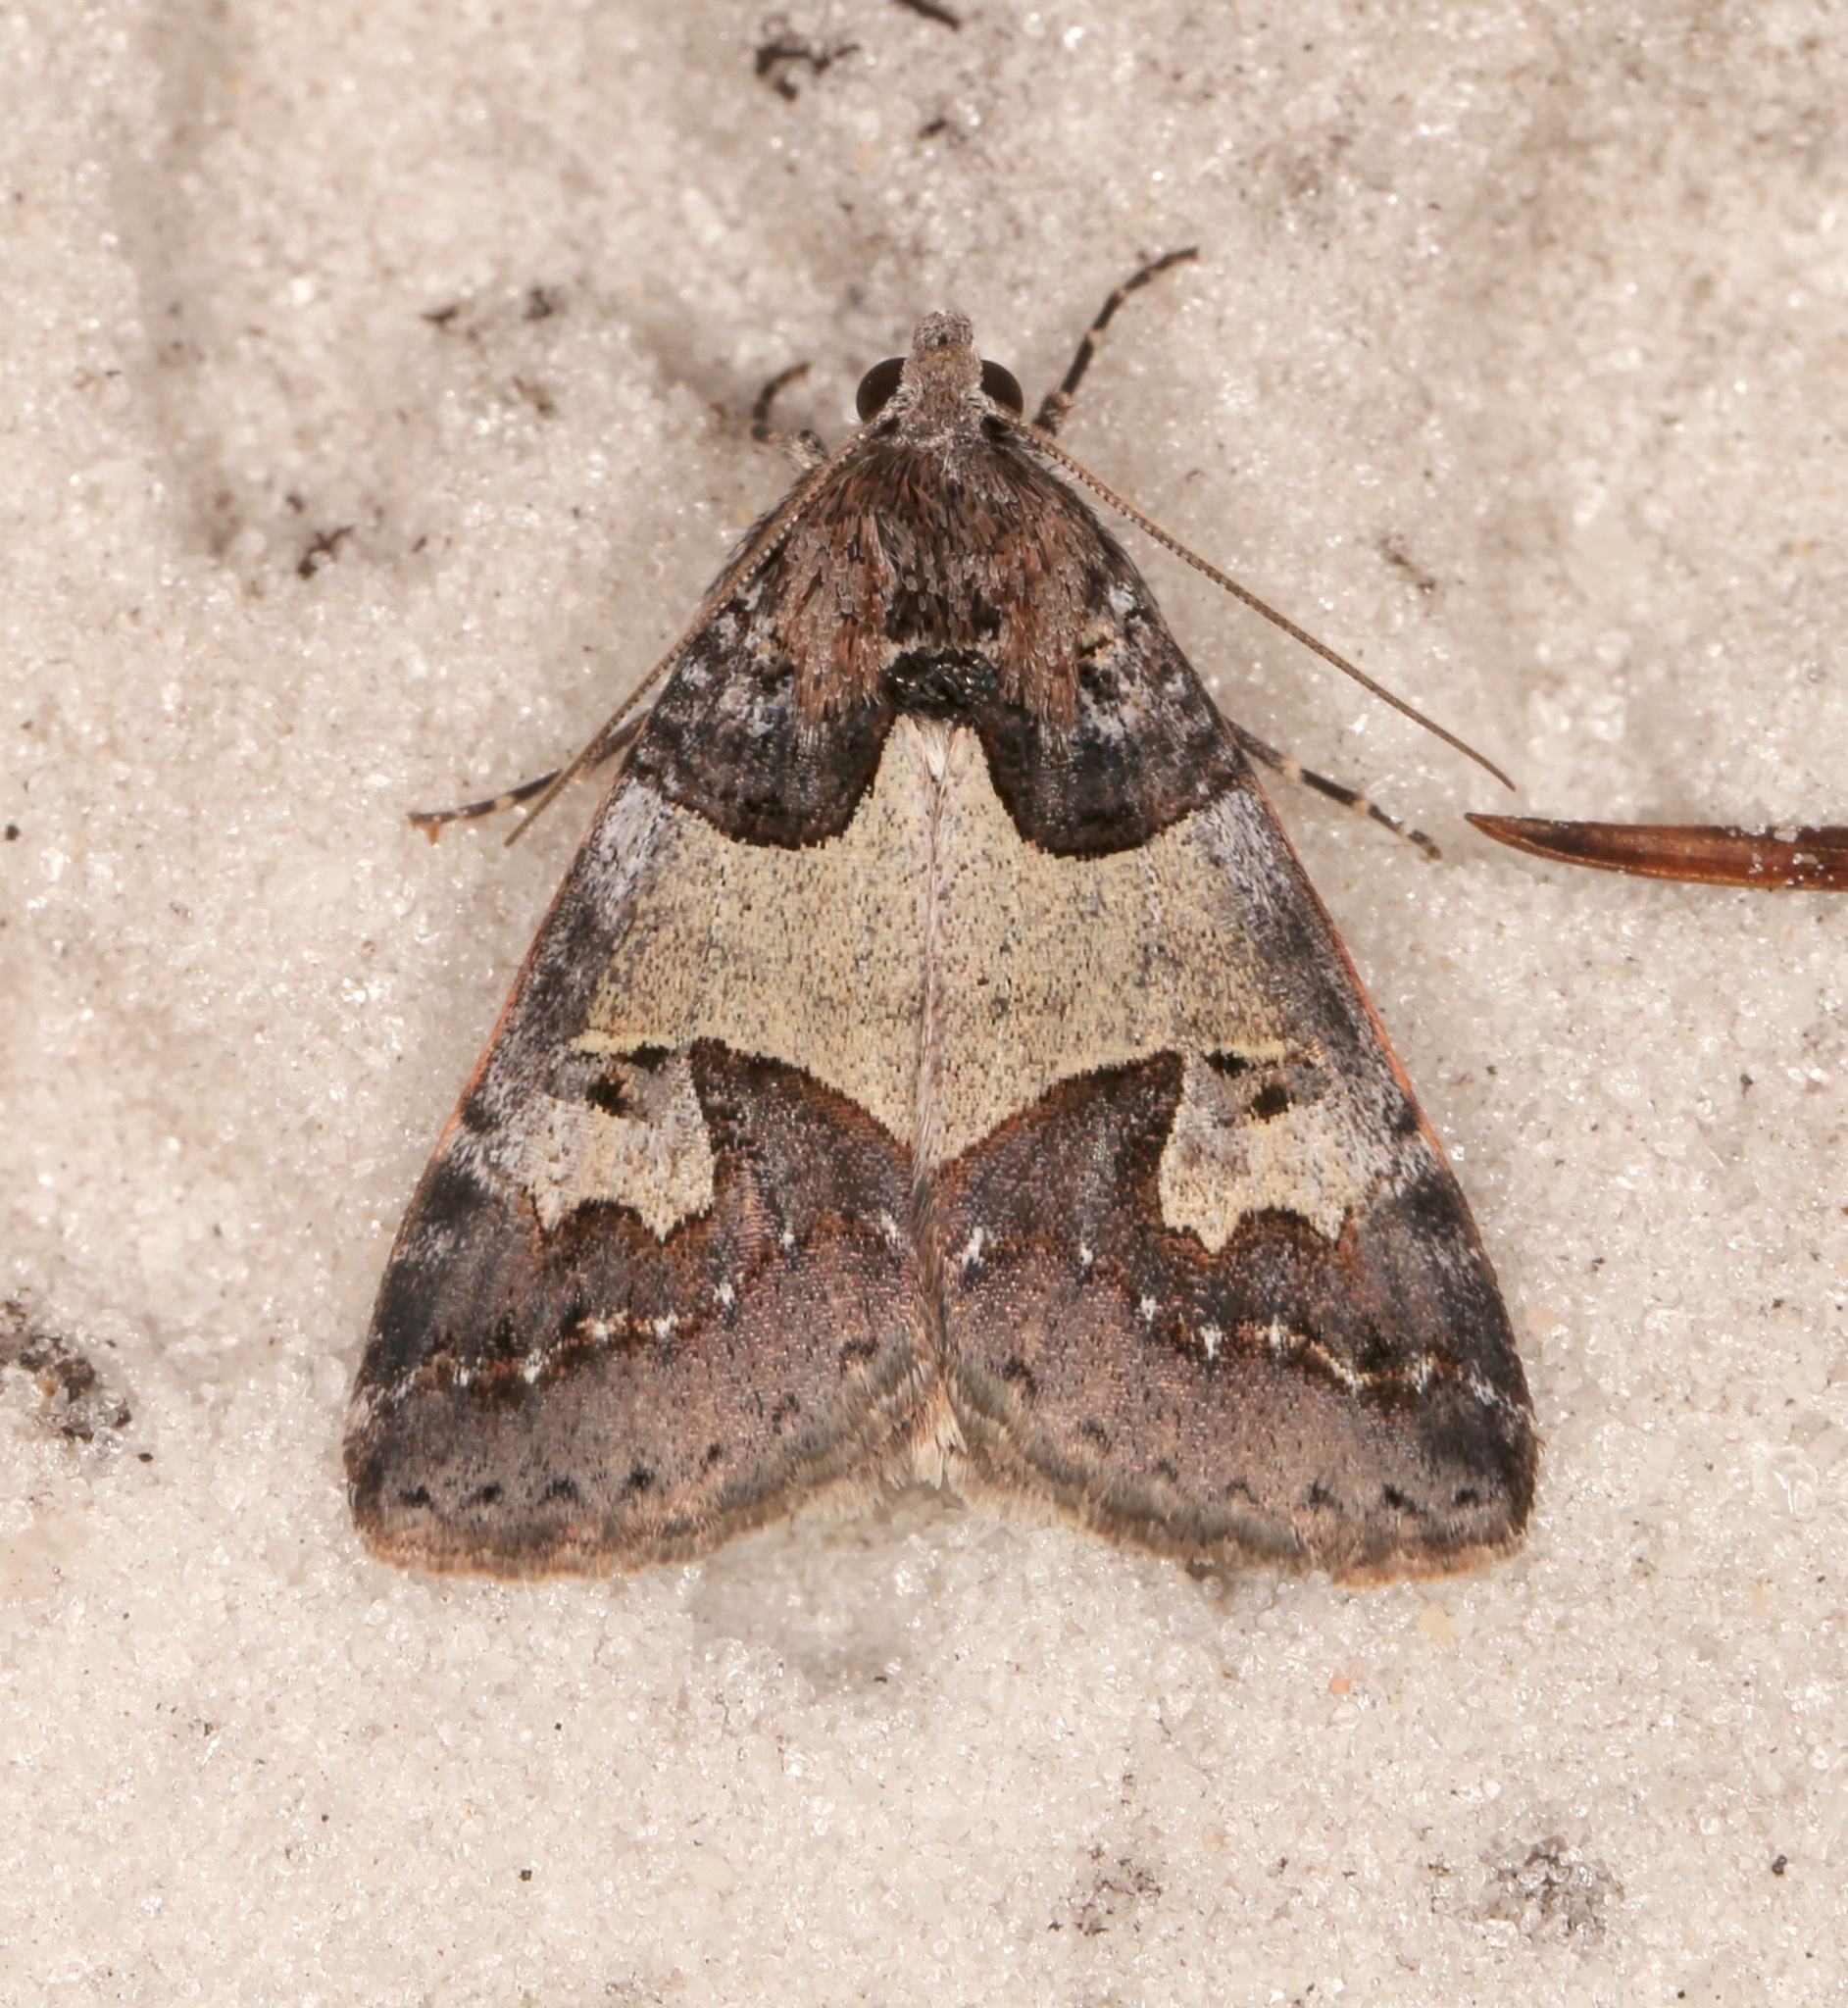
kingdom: Animalia
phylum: Arthropoda
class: Insecta
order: Lepidoptera
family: Erebidae
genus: Drasteria
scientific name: Drasteria graphica
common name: Coastal graphic
